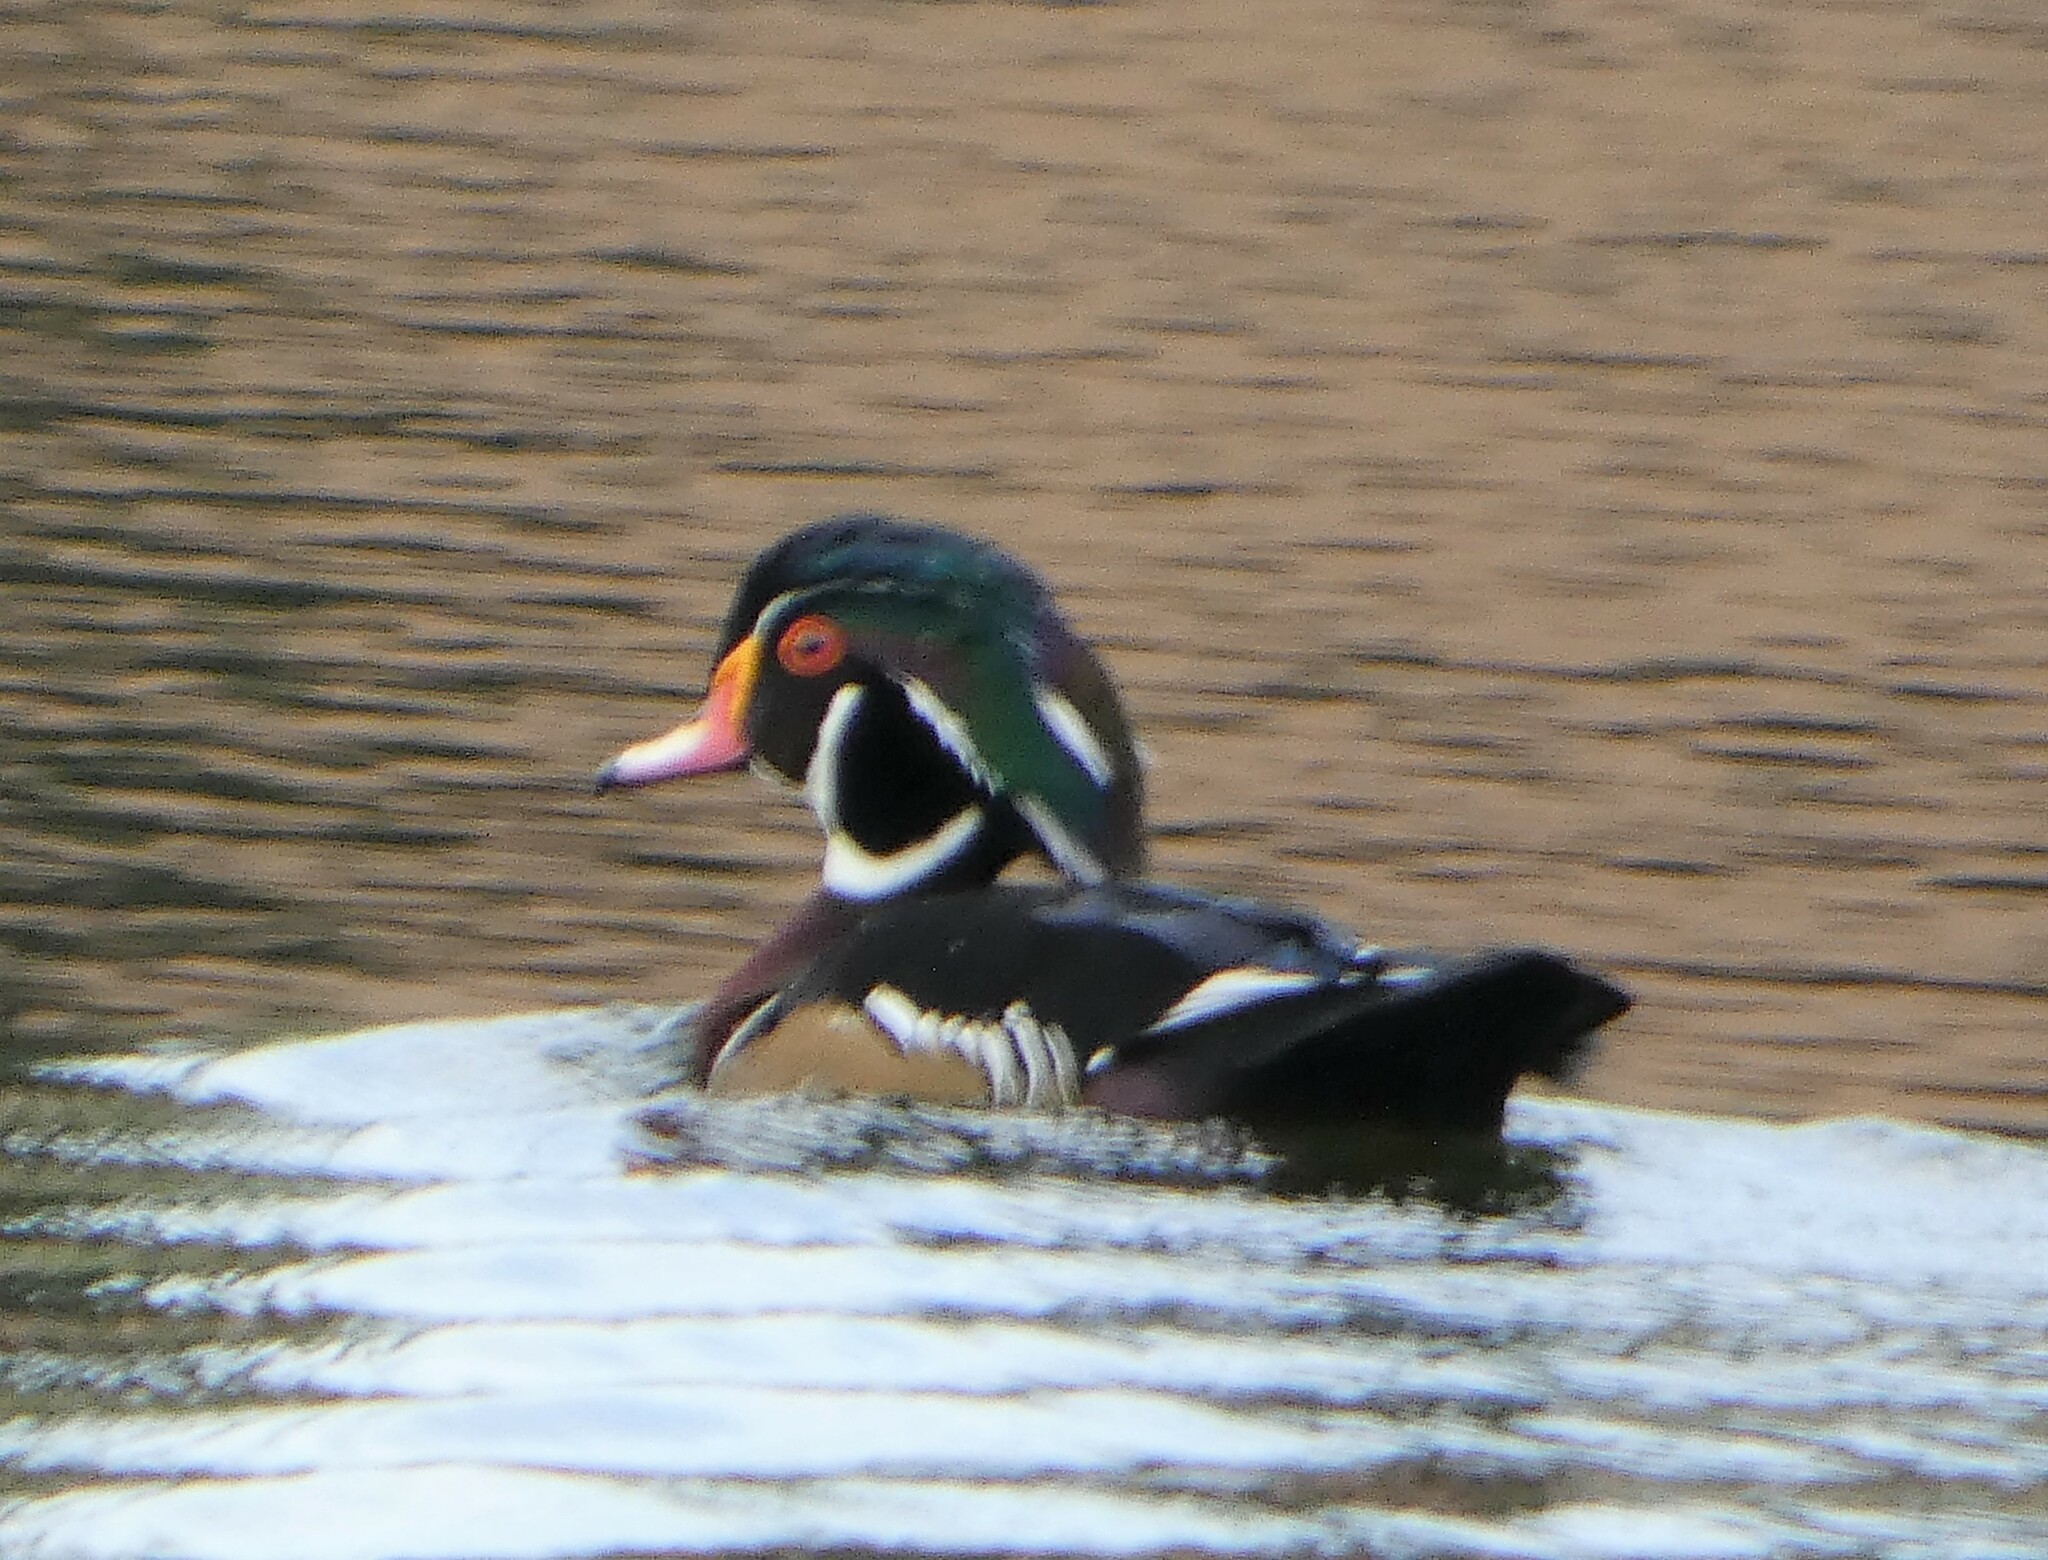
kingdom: Animalia
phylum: Chordata
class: Aves
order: Anseriformes
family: Anatidae
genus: Aix
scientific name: Aix sponsa
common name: Wood duck
